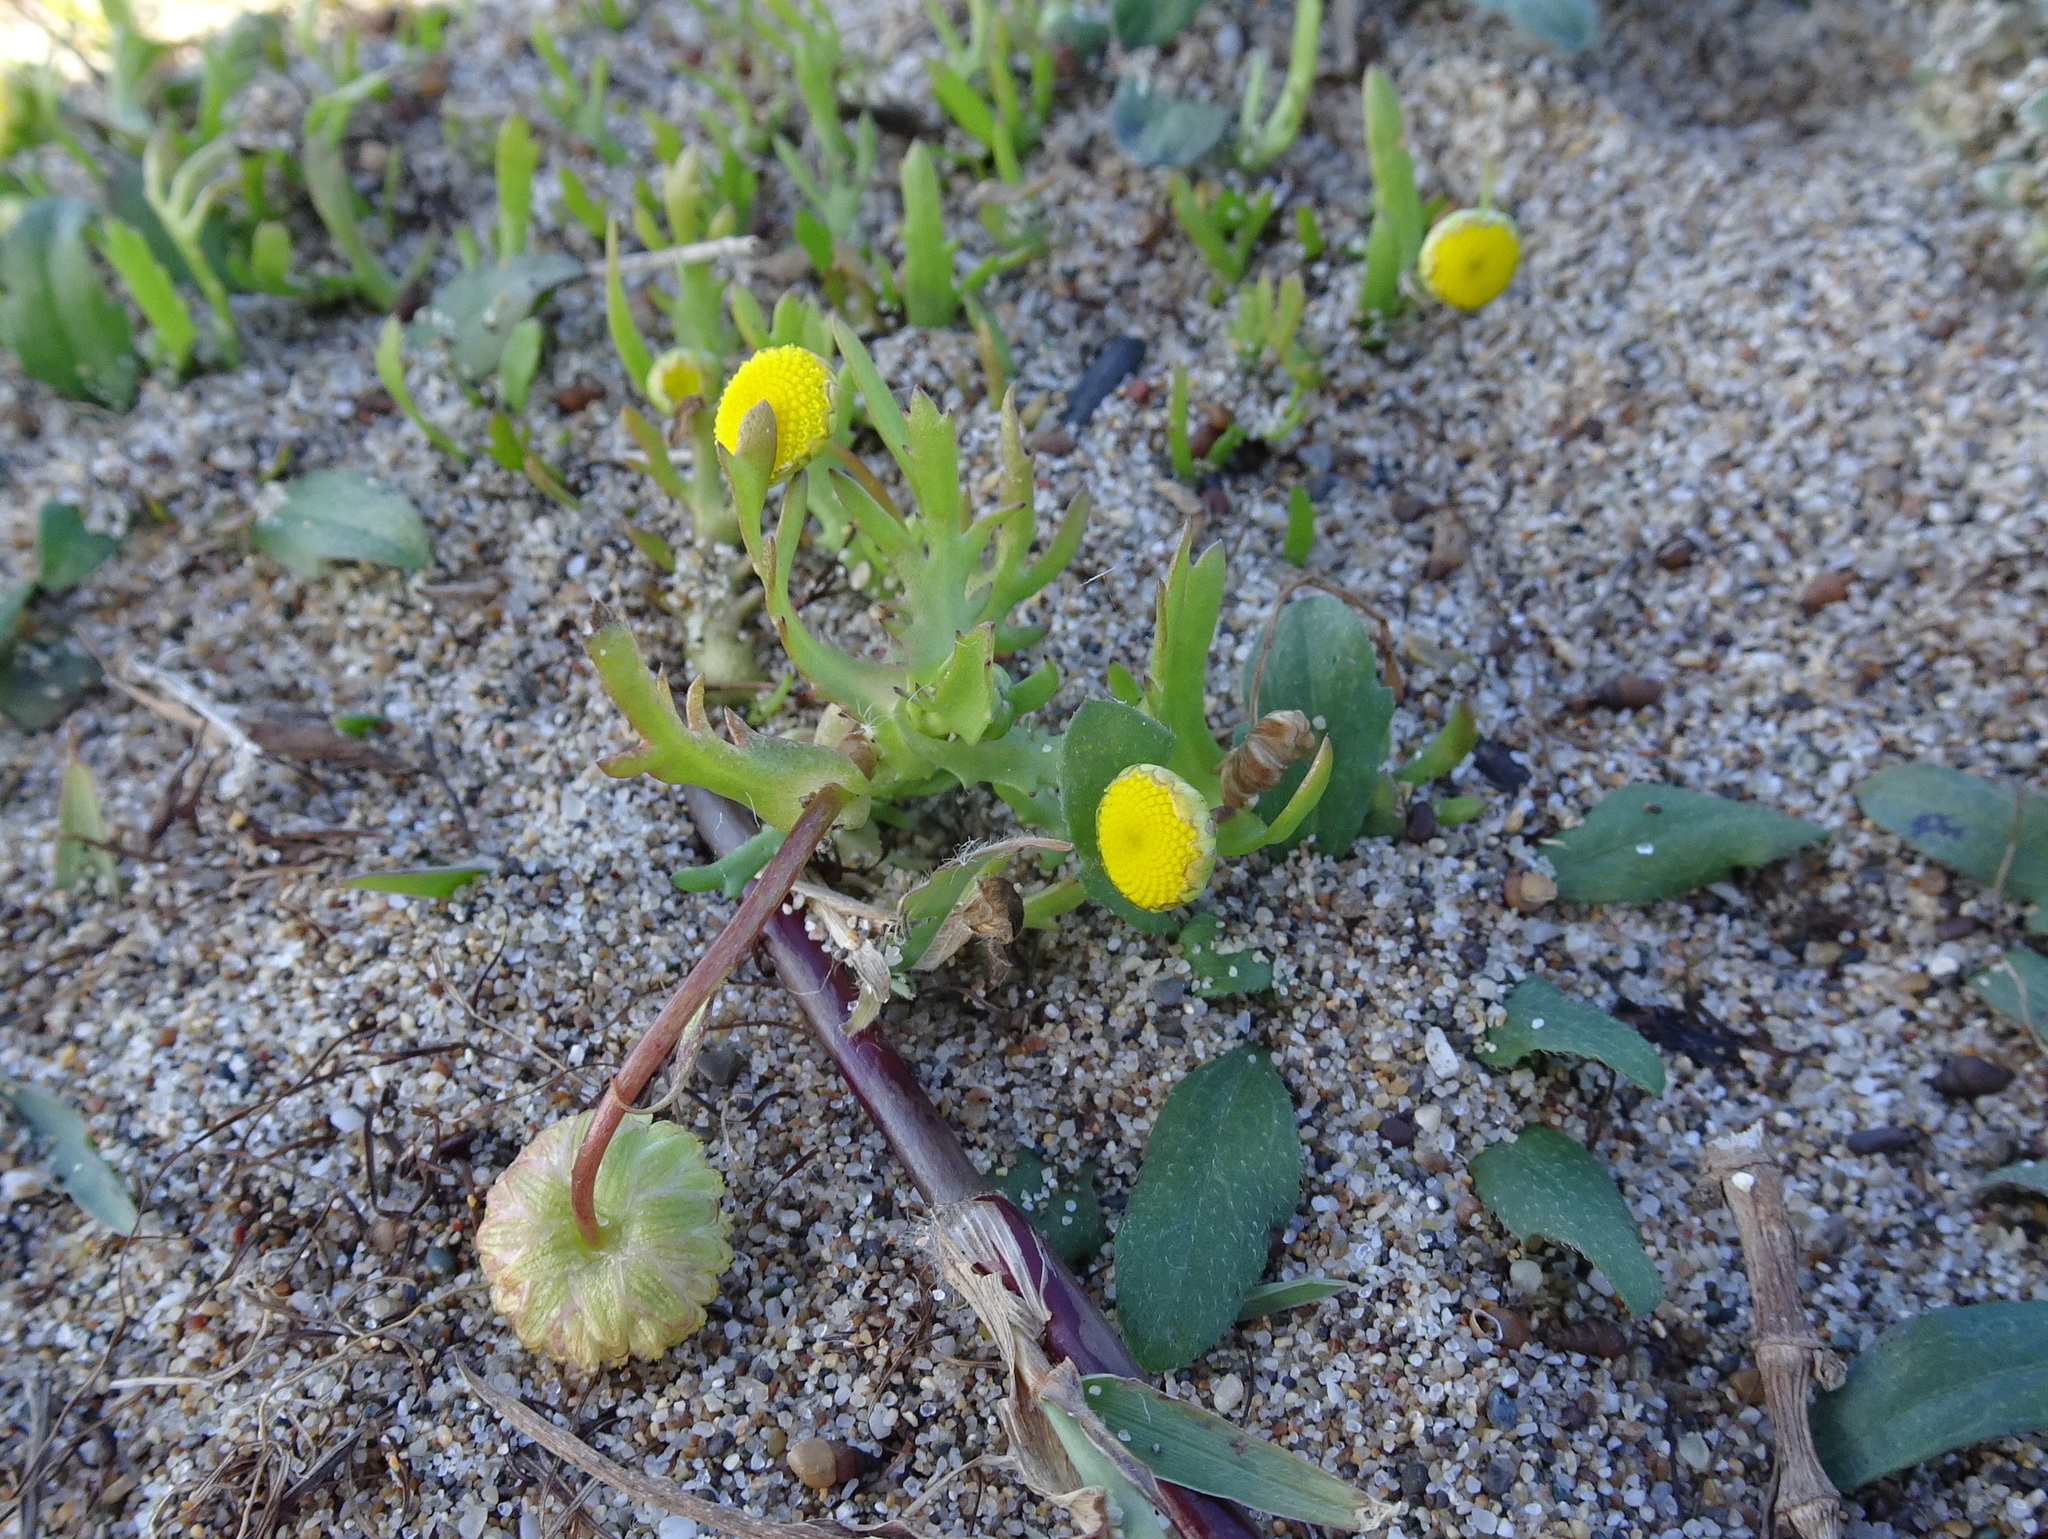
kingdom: Plantae
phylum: Tracheophyta
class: Magnoliopsida
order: Asterales
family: Asteraceae
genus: Cotula
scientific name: Cotula coronopifolia
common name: Buttonweed
